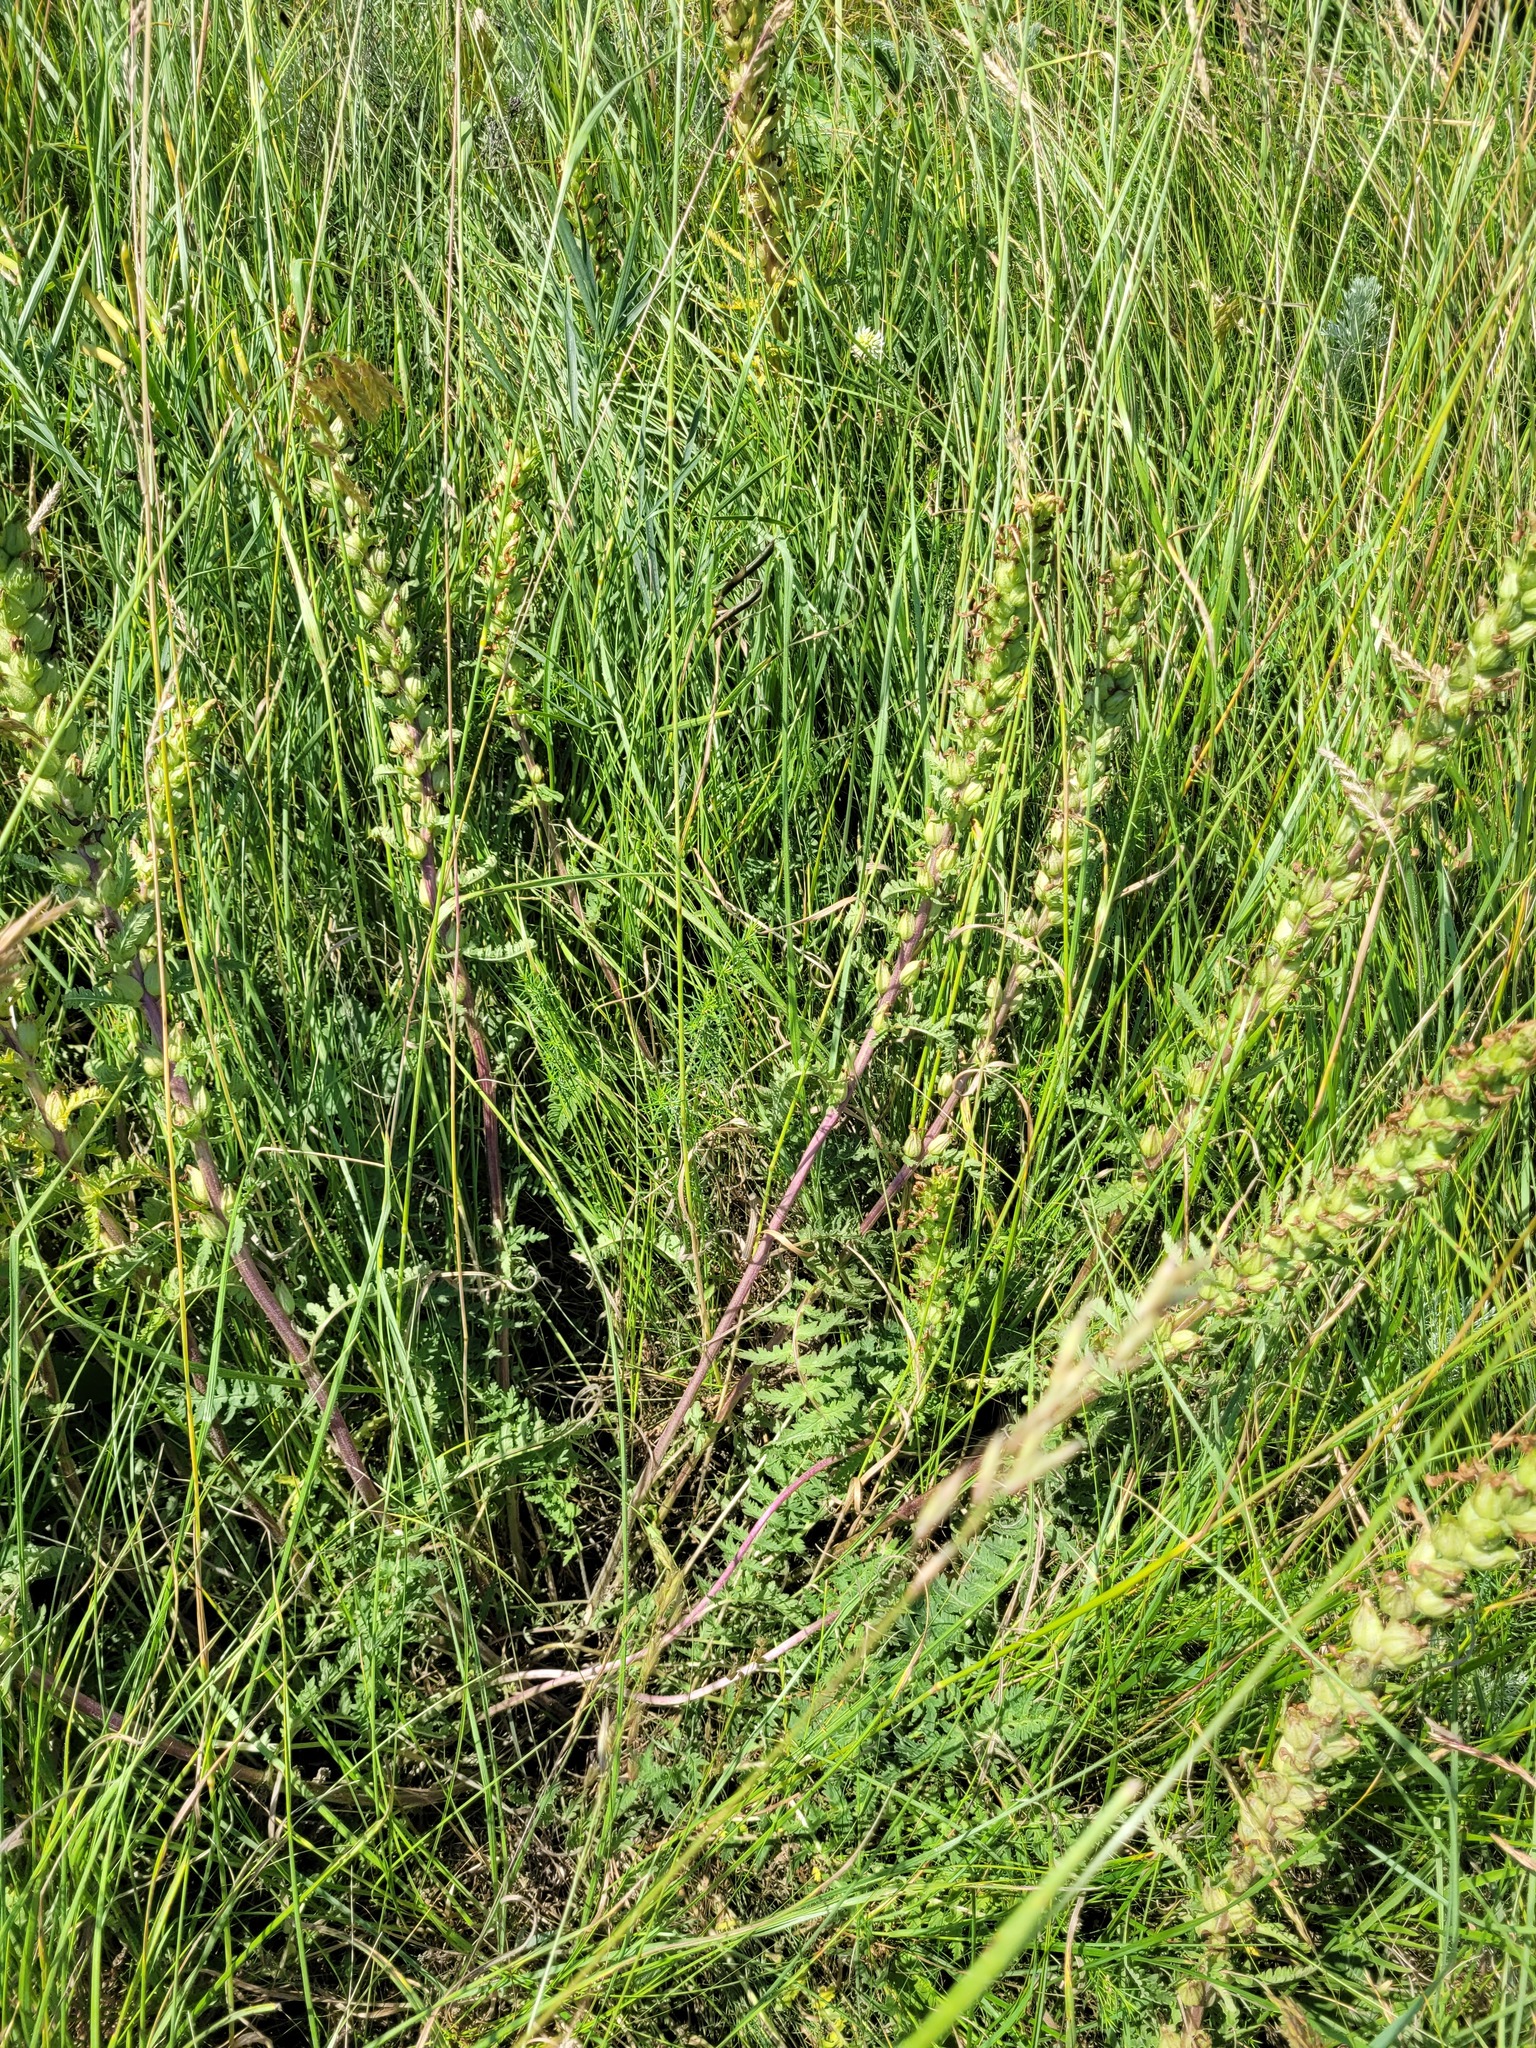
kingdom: Plantae
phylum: Tracheophyta
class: Magnoliopsida
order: Lamiales
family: Orobanchaceae
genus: Pedicularis
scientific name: Pedicularis kaufmannii
